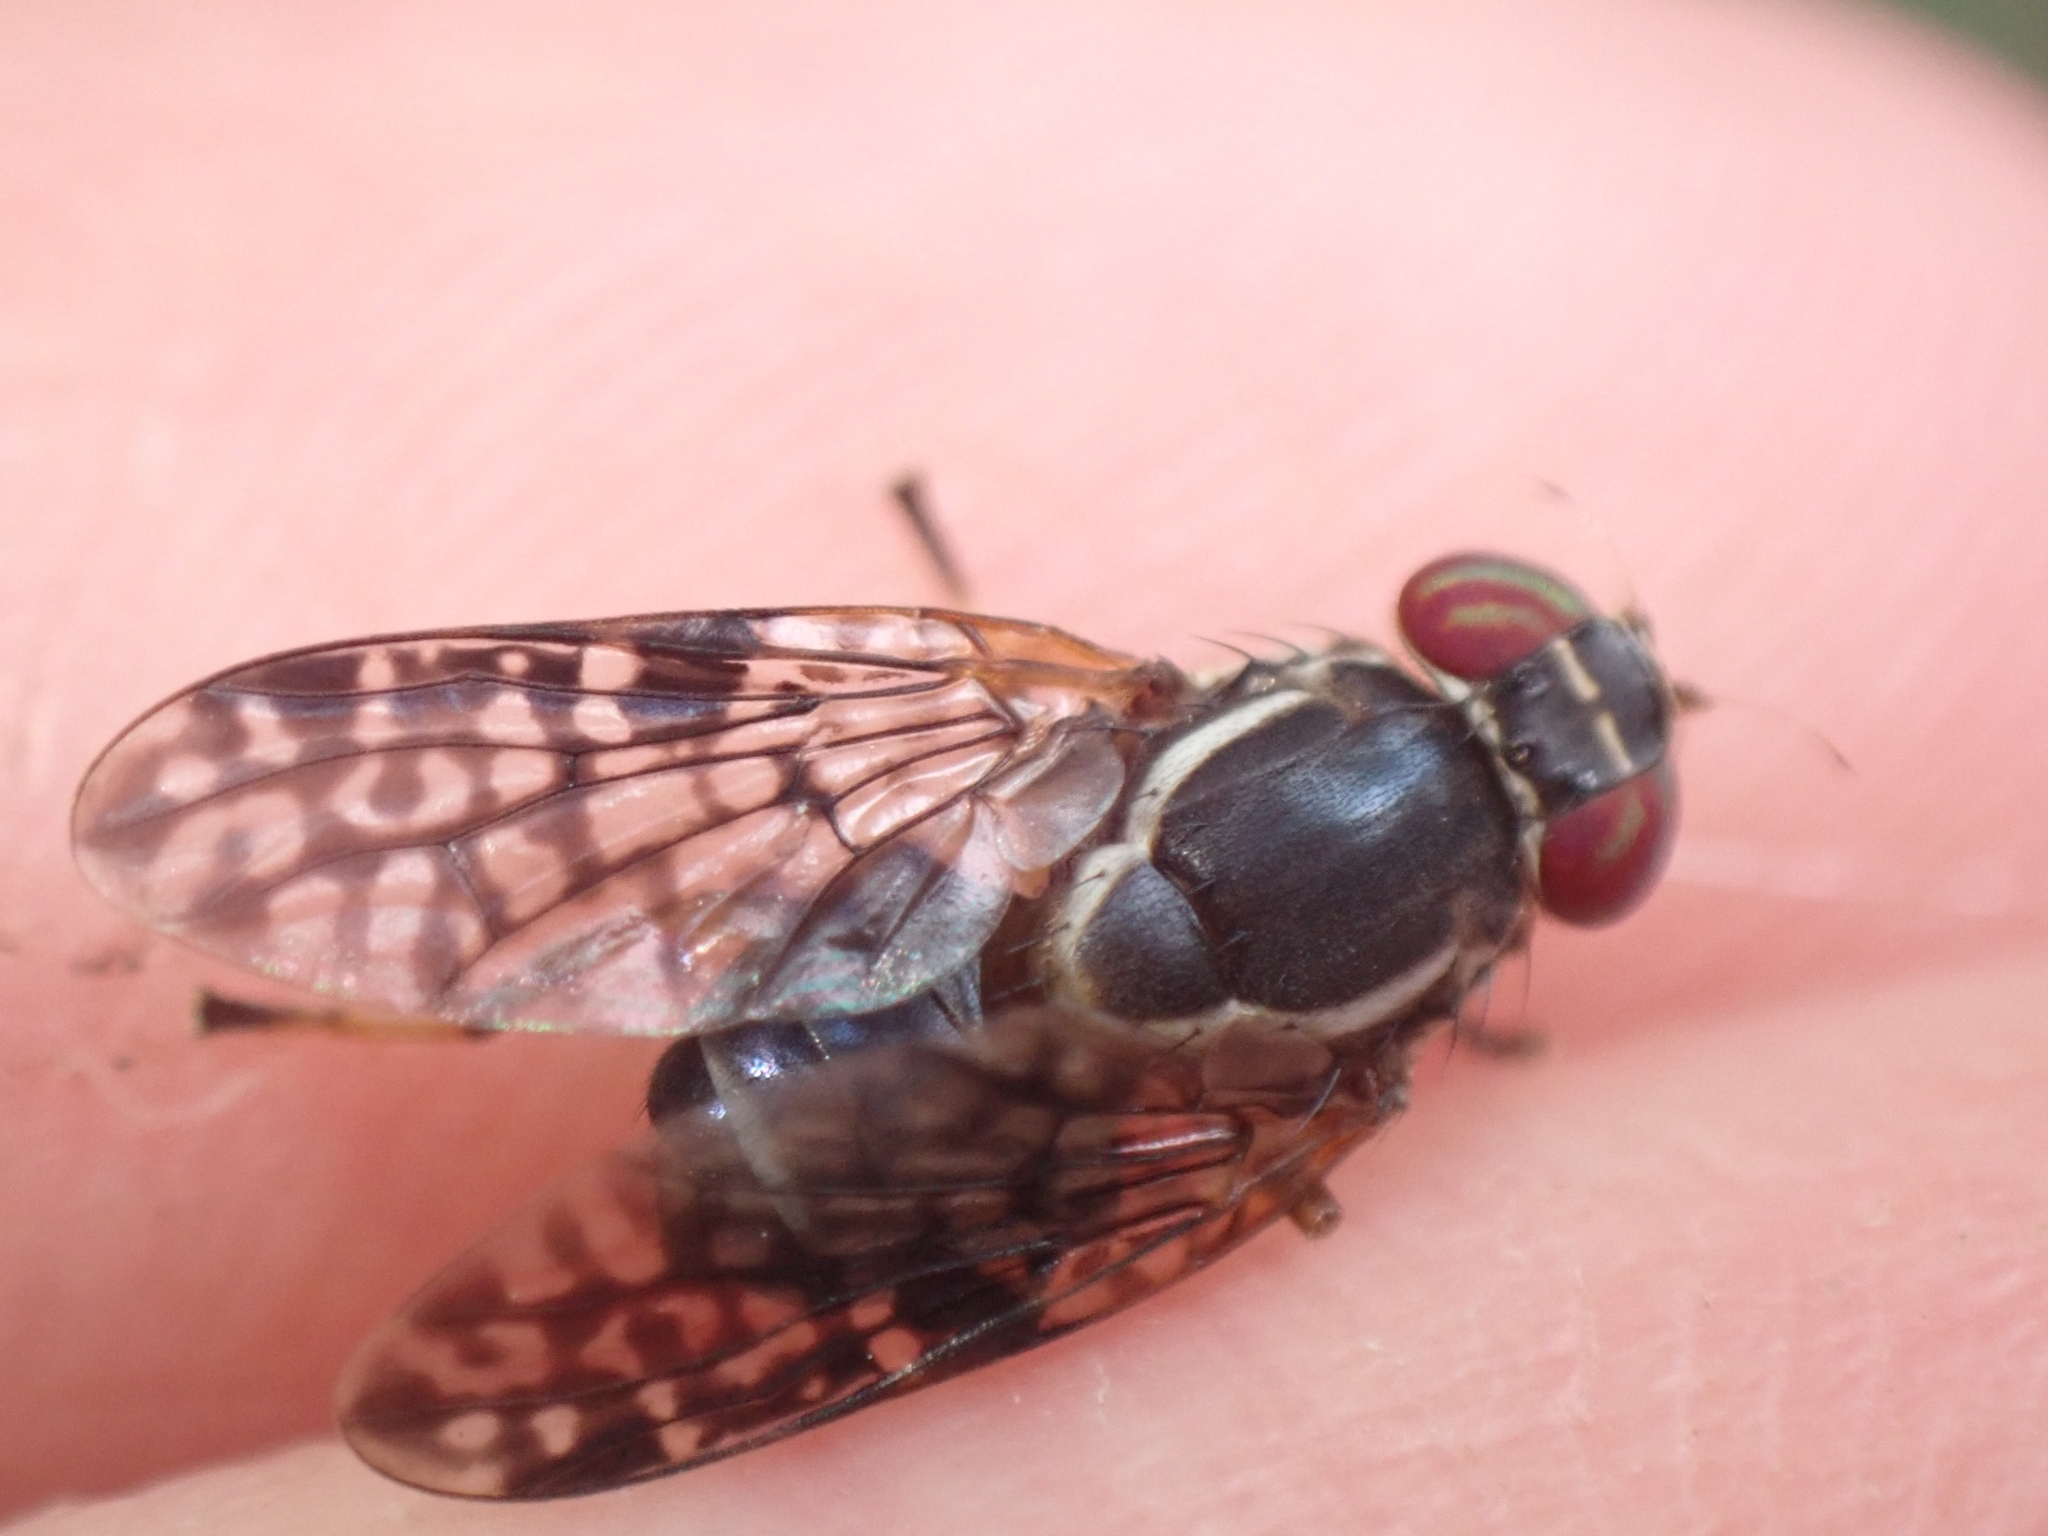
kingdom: Animalia
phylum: Arthropoda
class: Insecta
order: Diptera
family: Platystomatidae
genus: Scholastes
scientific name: Scholastes lonchifer
